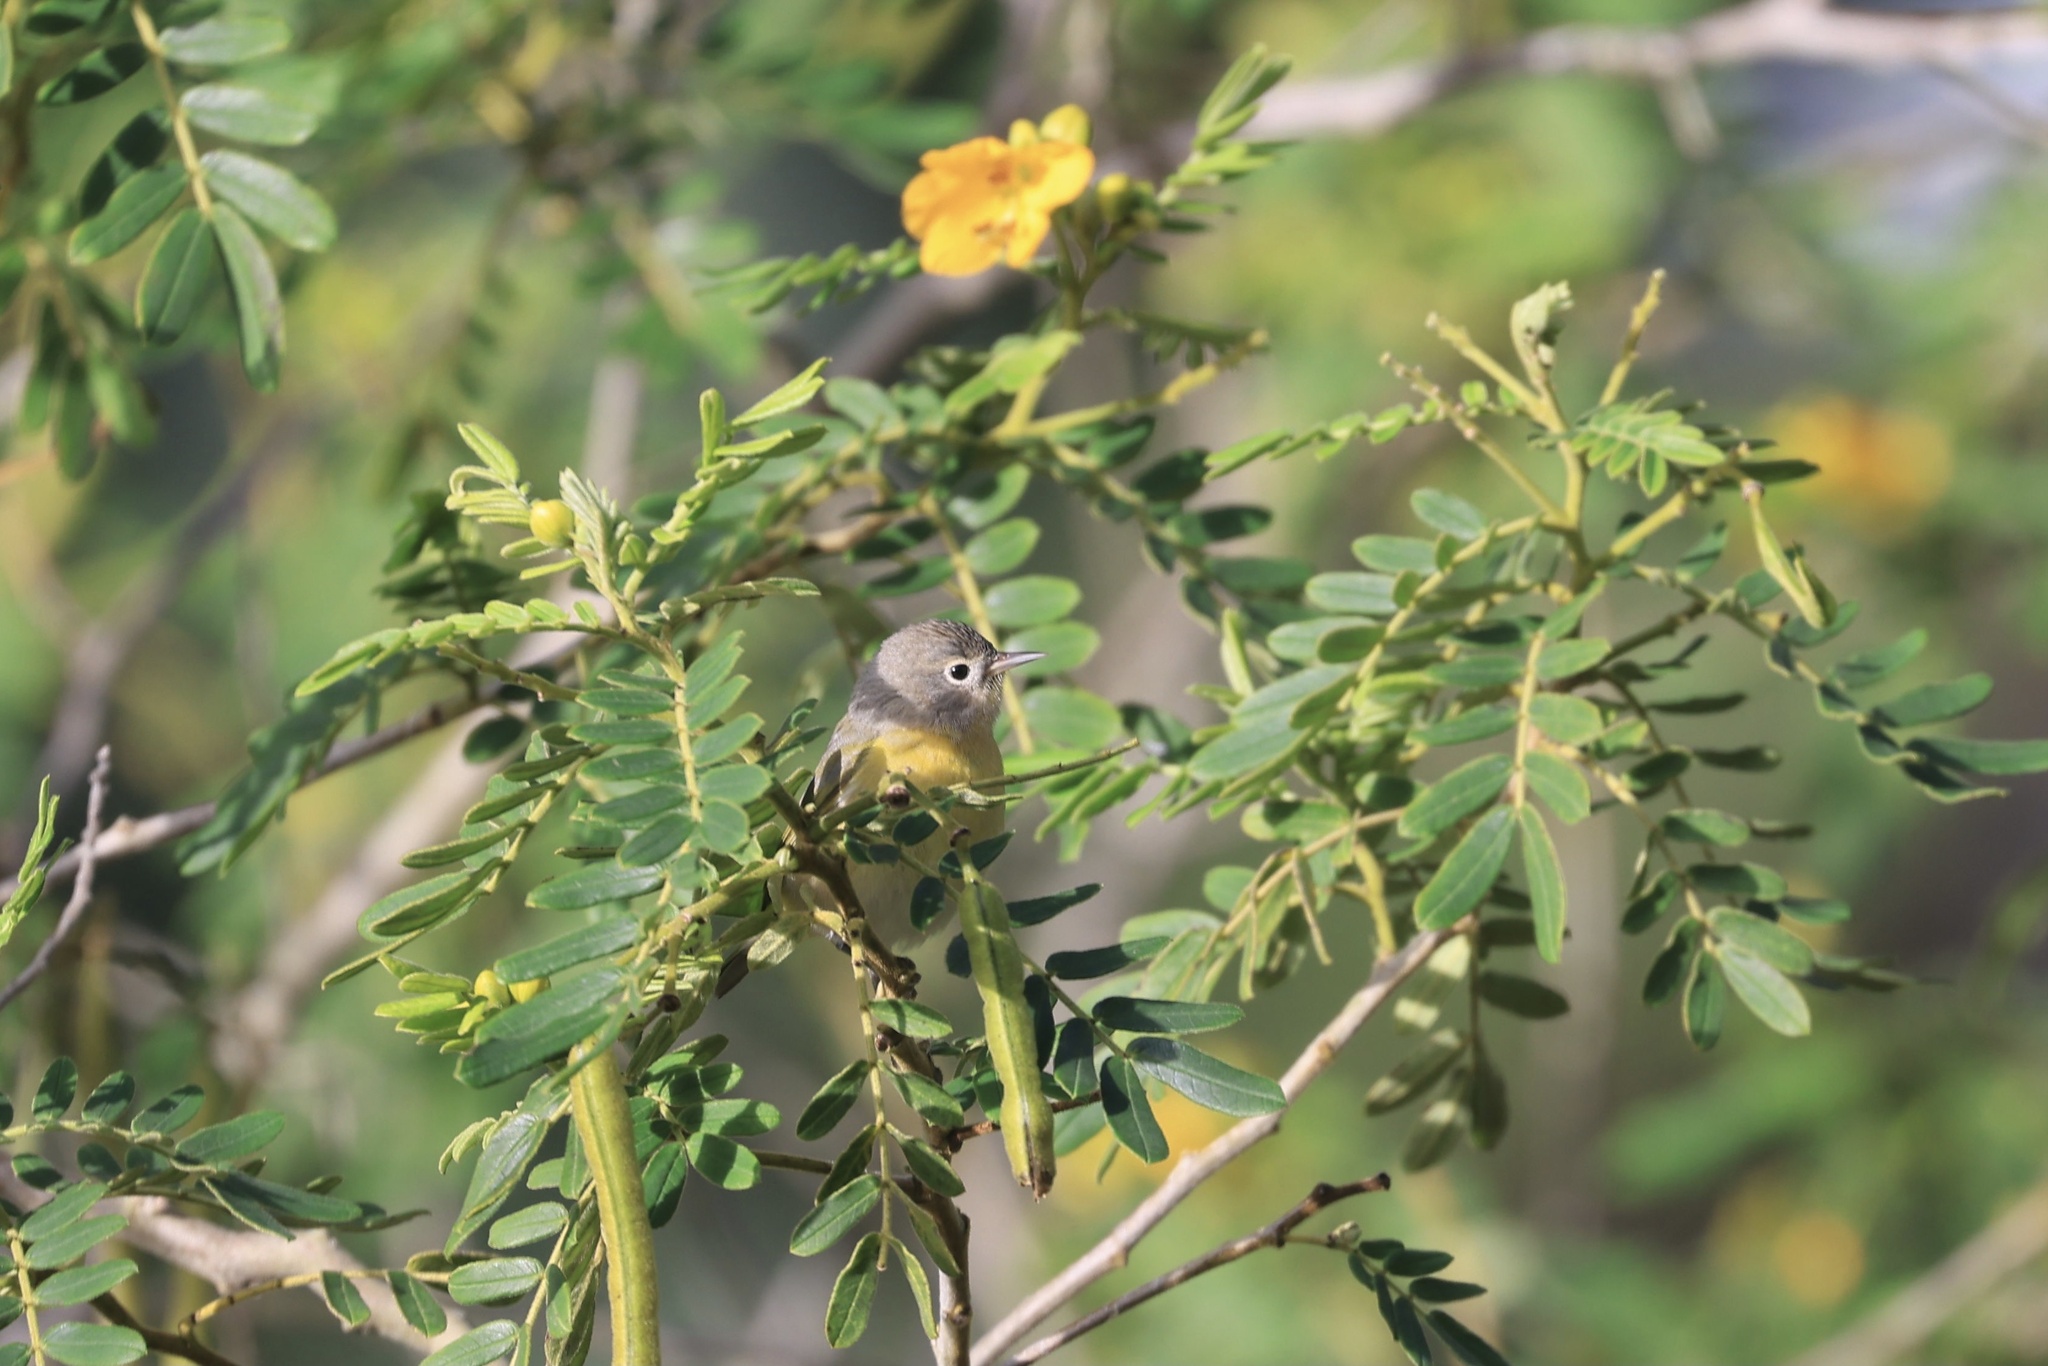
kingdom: Animalia
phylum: Chordata
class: Aves
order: Passeriformes
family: Parulidae
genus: Leiothlypis
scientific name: Leiothlypis ruficapilla
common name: Nashville warbler
